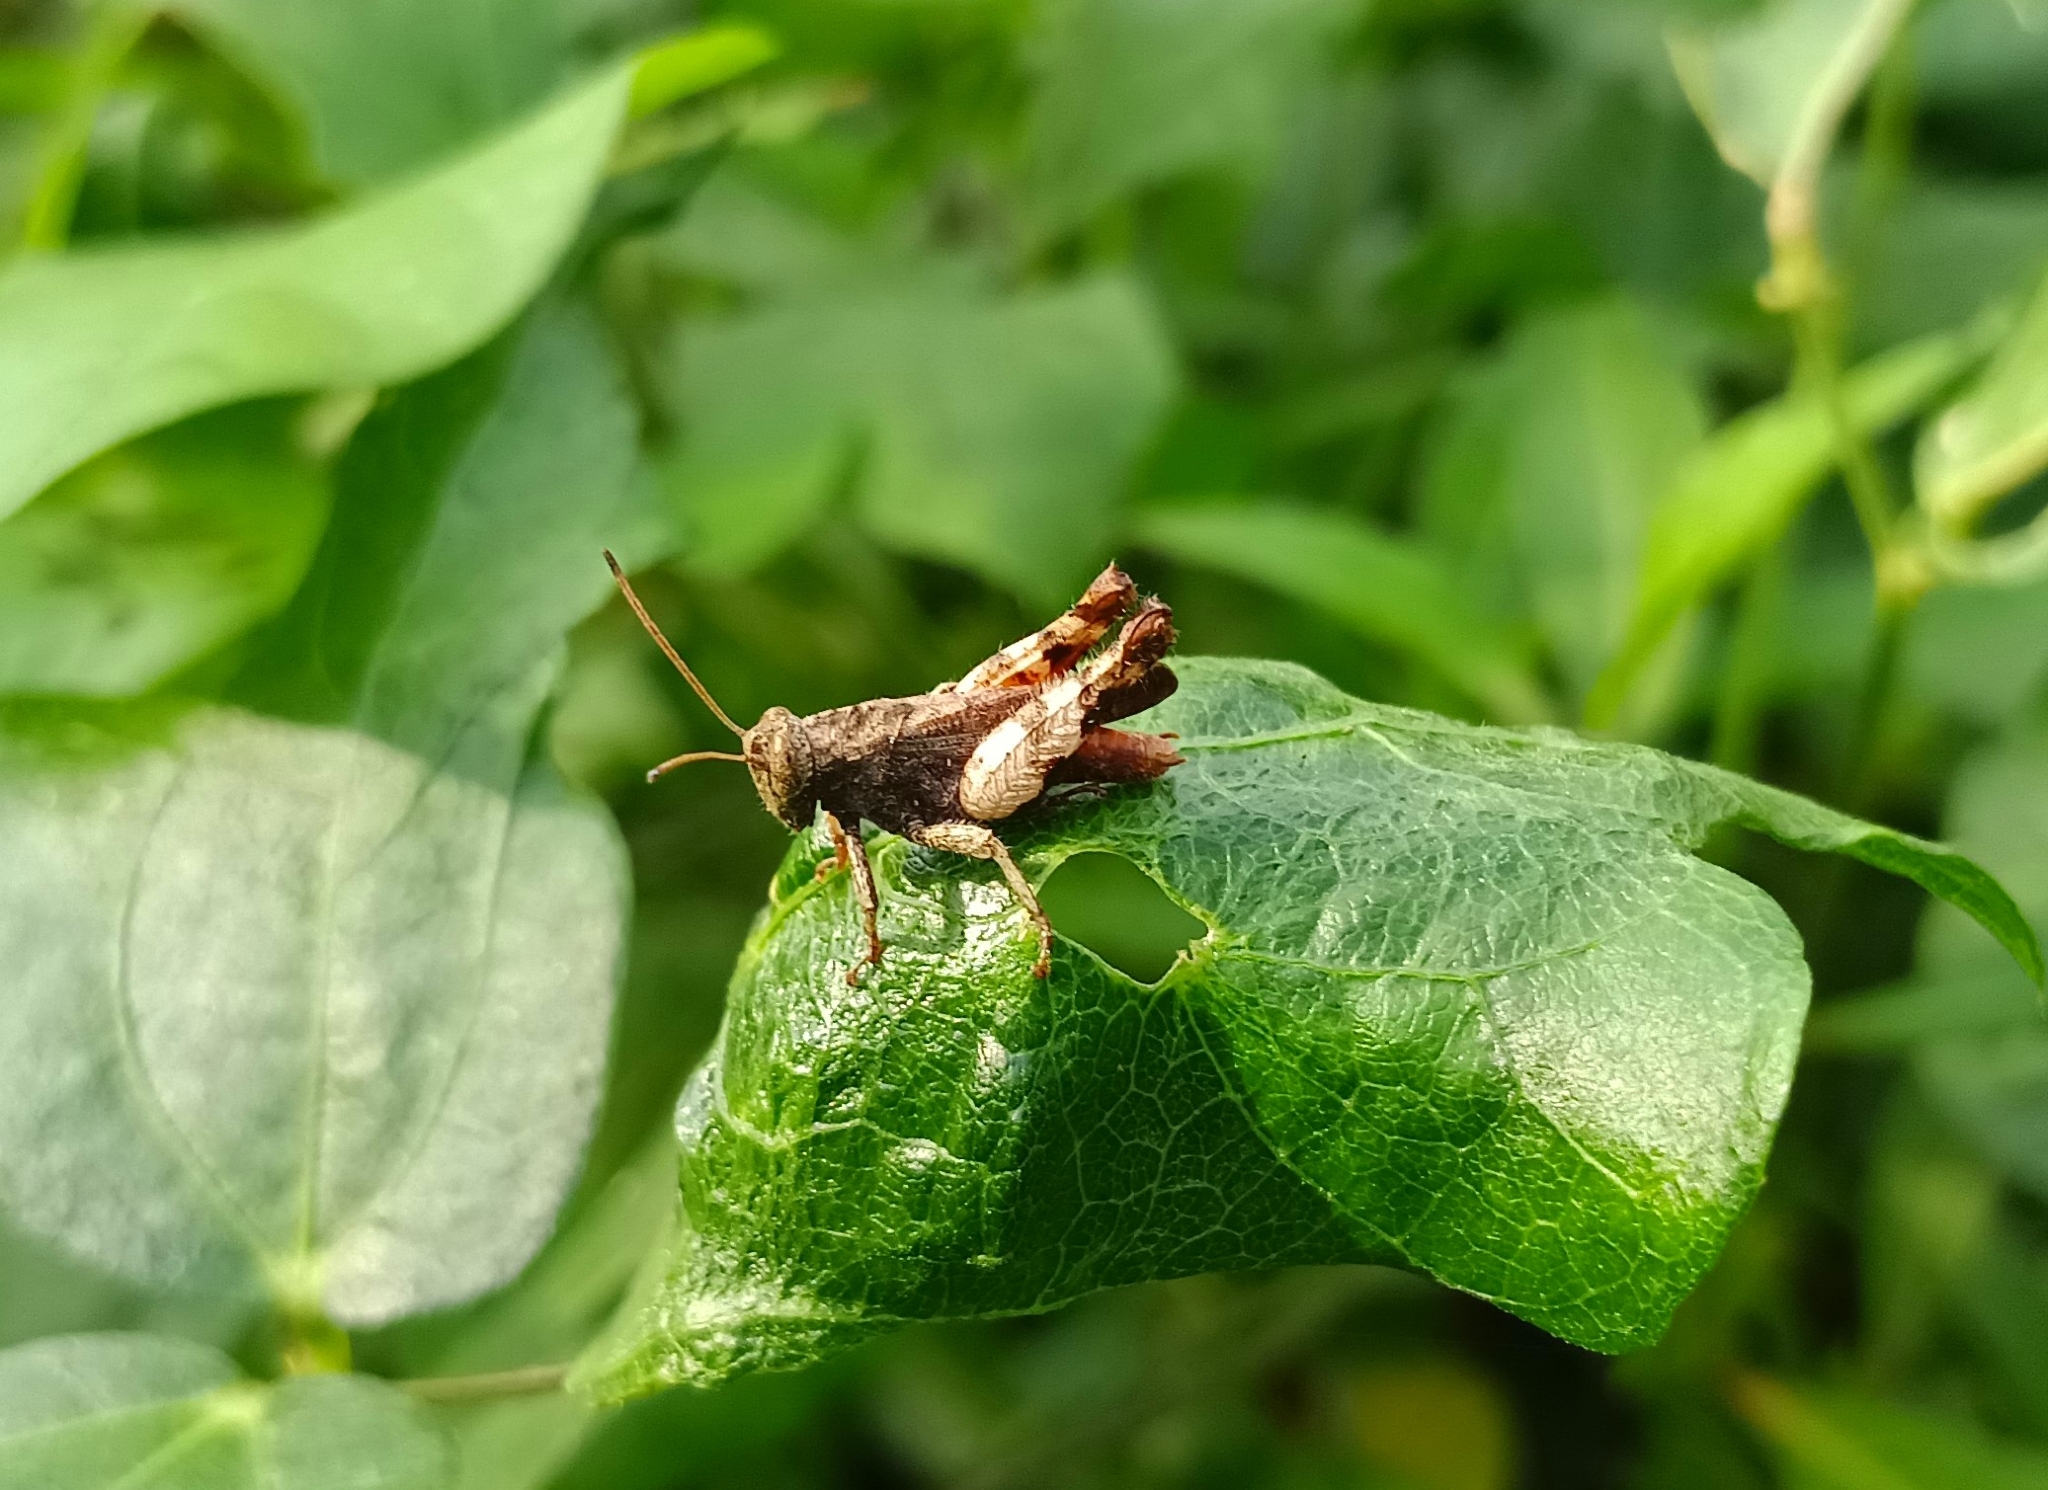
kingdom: Animalia
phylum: Arthropoda
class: Insecta
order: Orthoptera
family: Acrididae
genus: Epistaurus
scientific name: Epistaurus sinetyi
